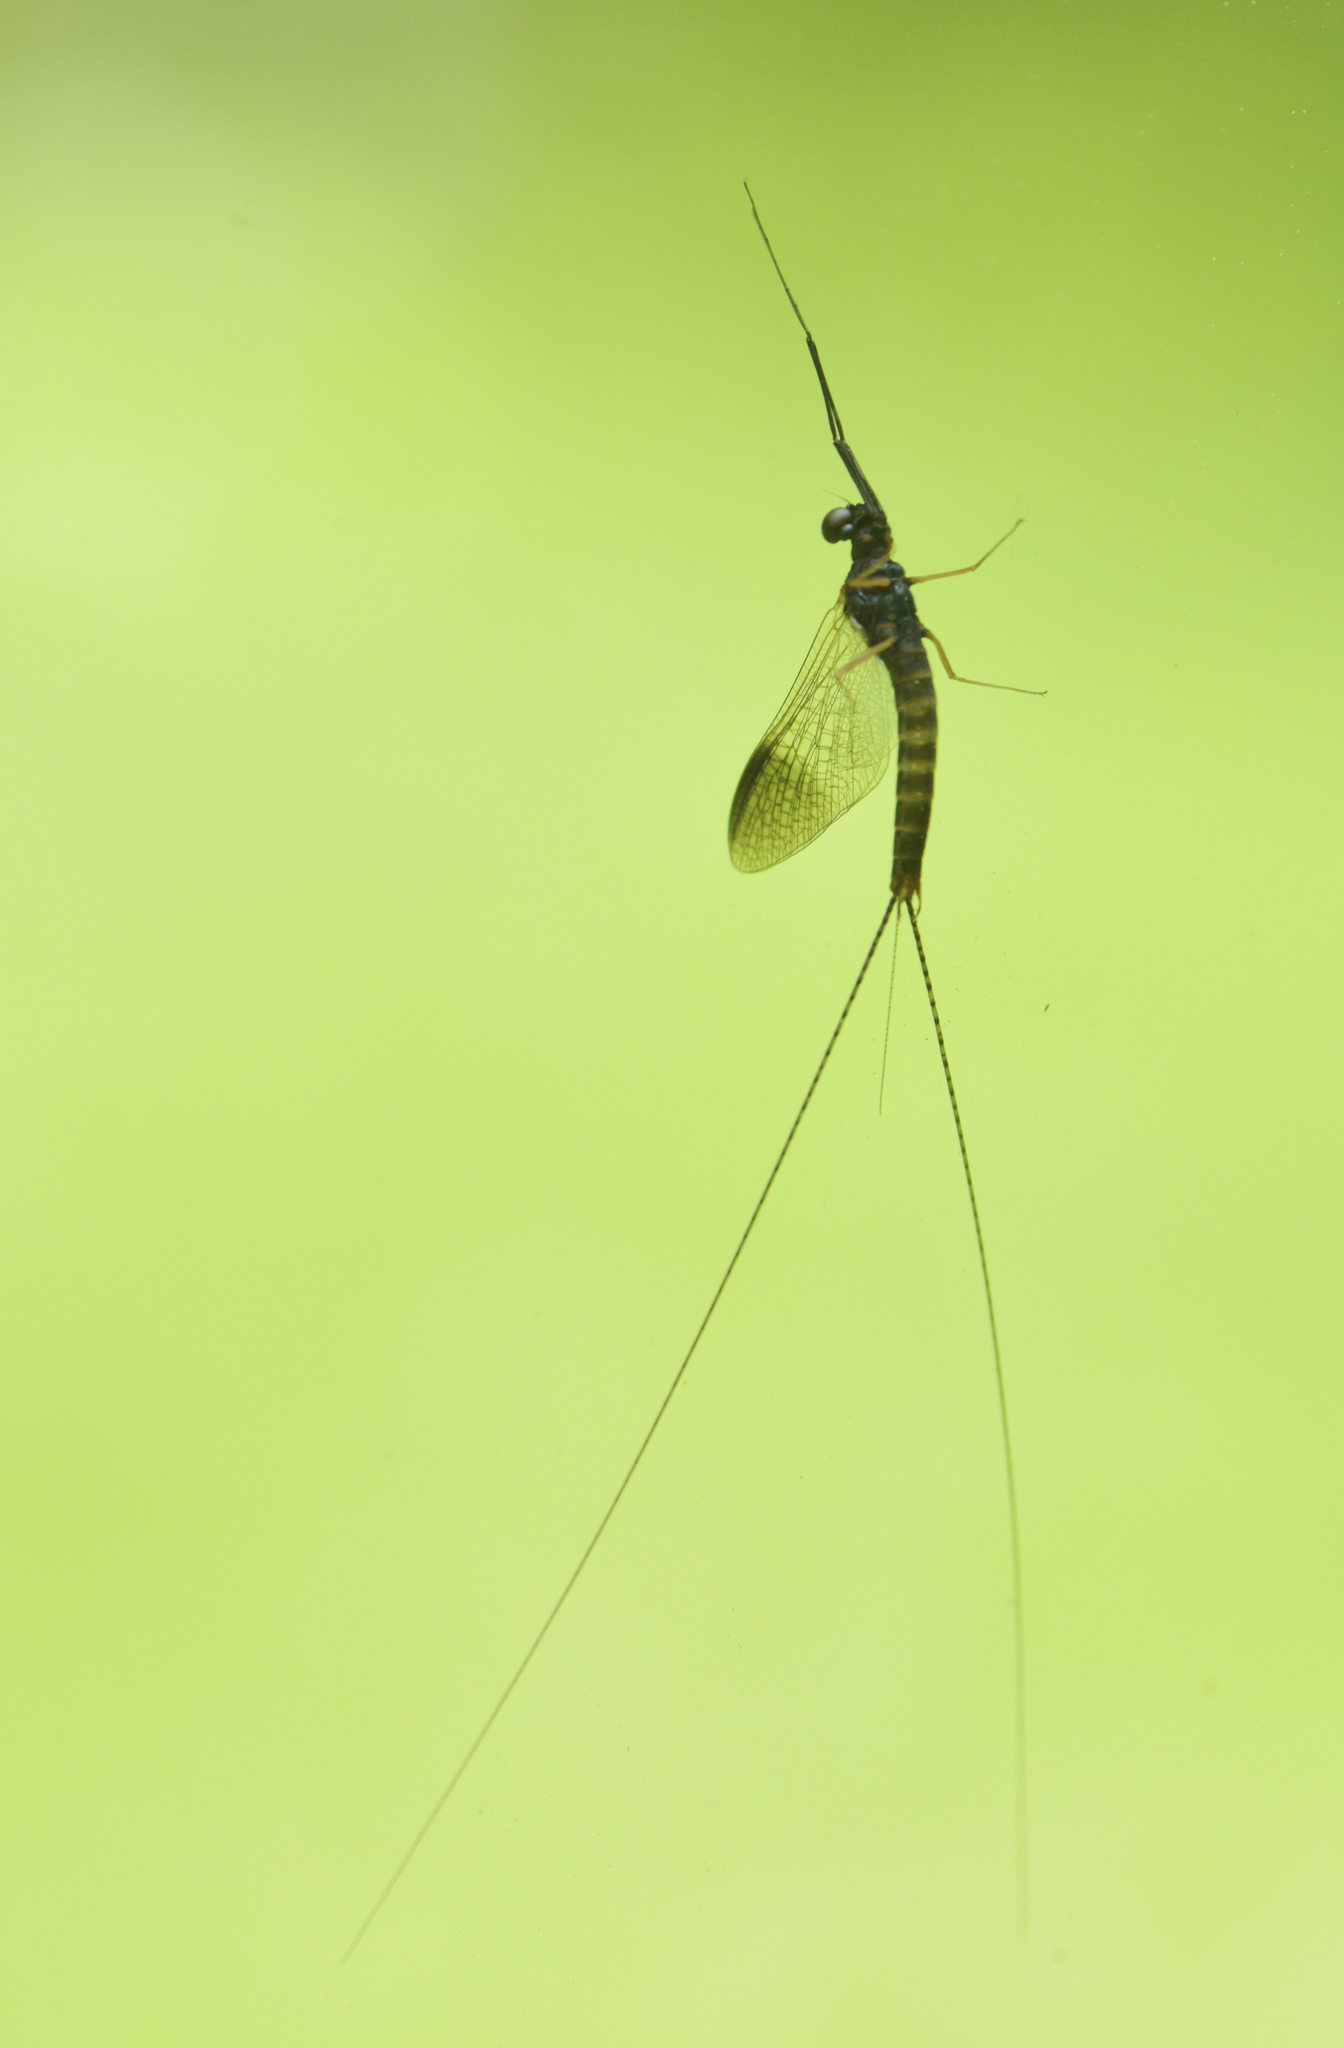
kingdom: Animalia
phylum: Arthropoda
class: Insecta
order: Ephemeroptera
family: Leptophlebiidae
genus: Leptophlebia
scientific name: Leptophlebia nebulosa
